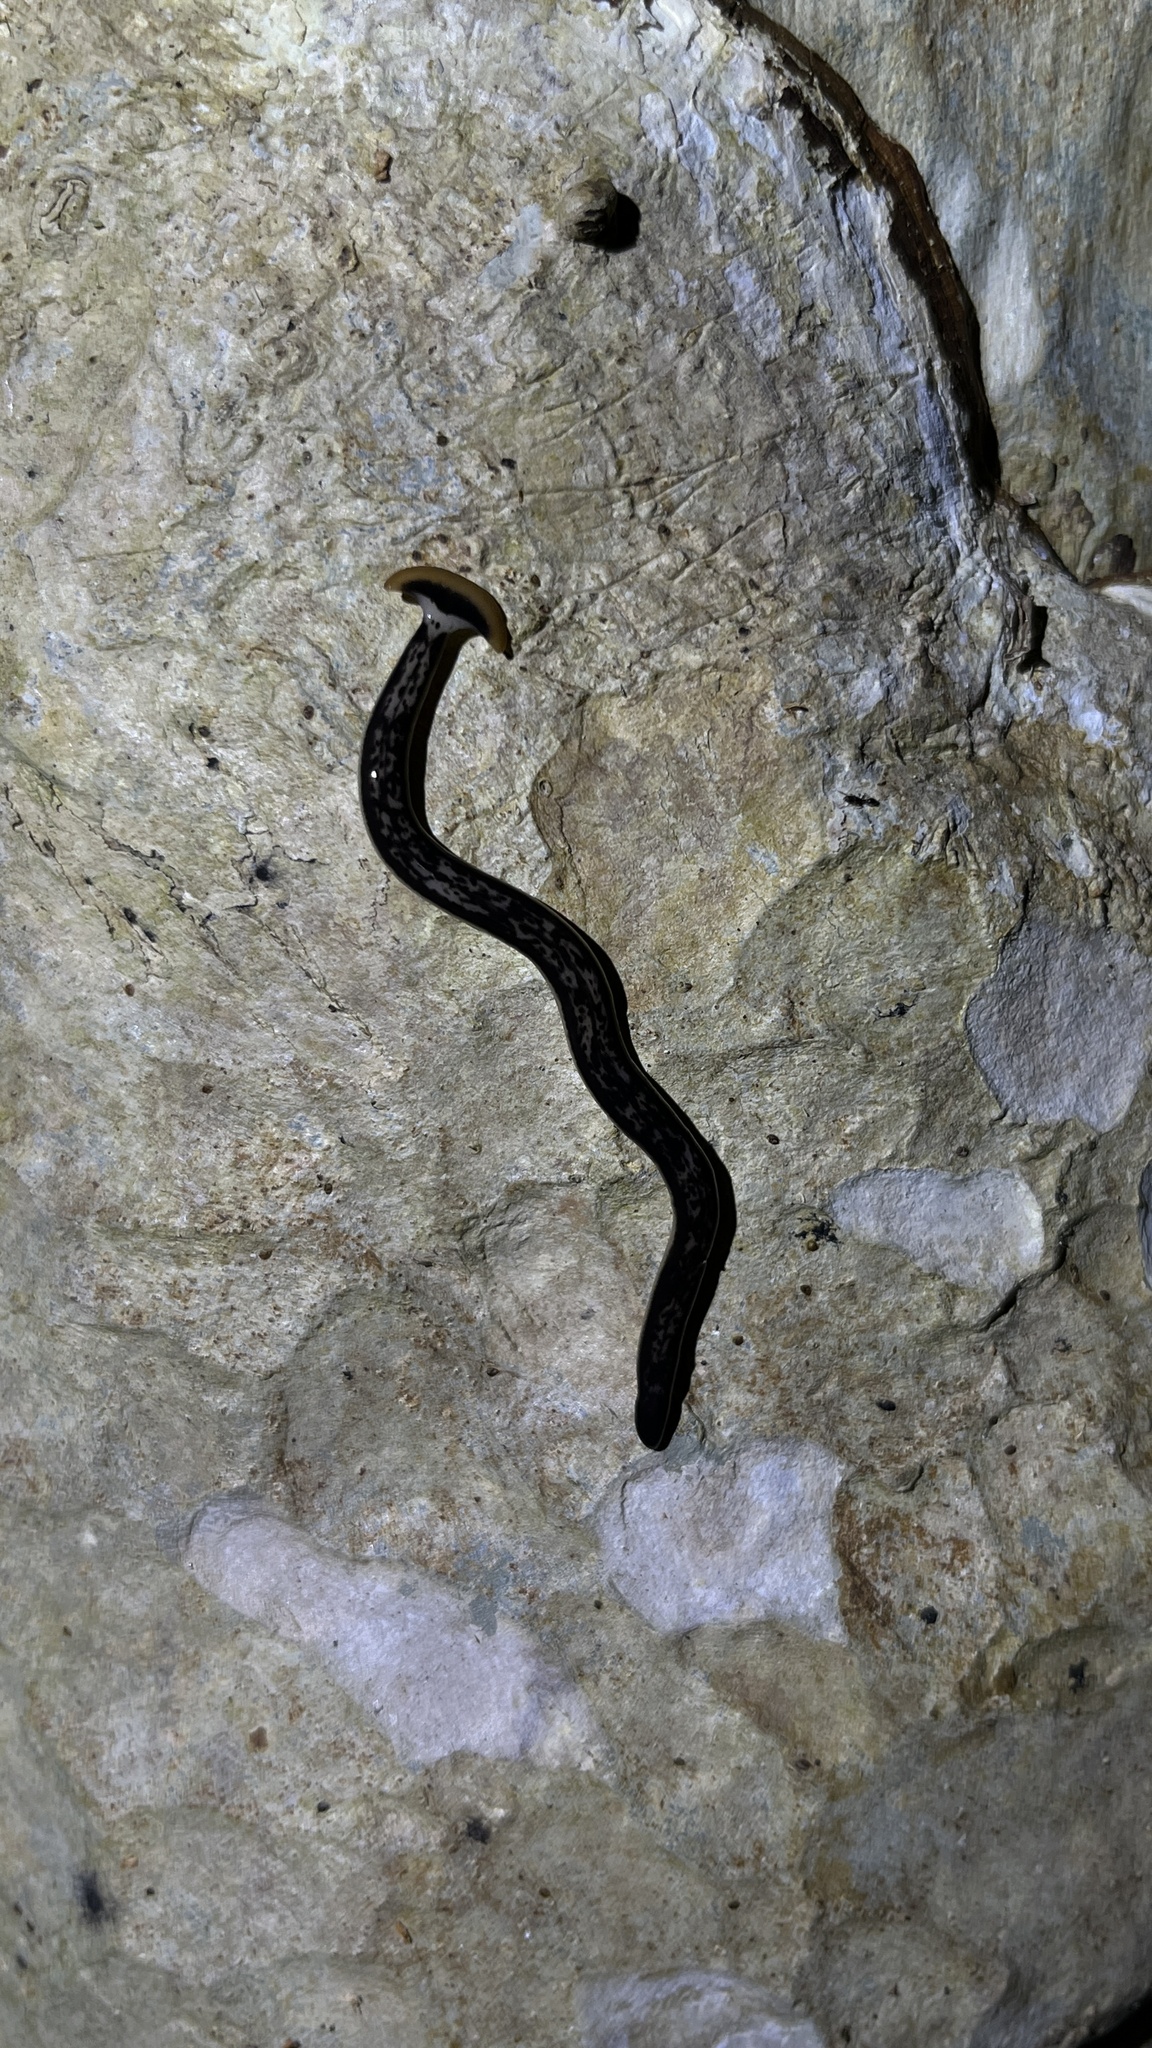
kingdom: Animalia
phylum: Platyhelminthes
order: Tricladida
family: Geoplanidae
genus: Bipalium
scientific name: Bipalium marginatum
